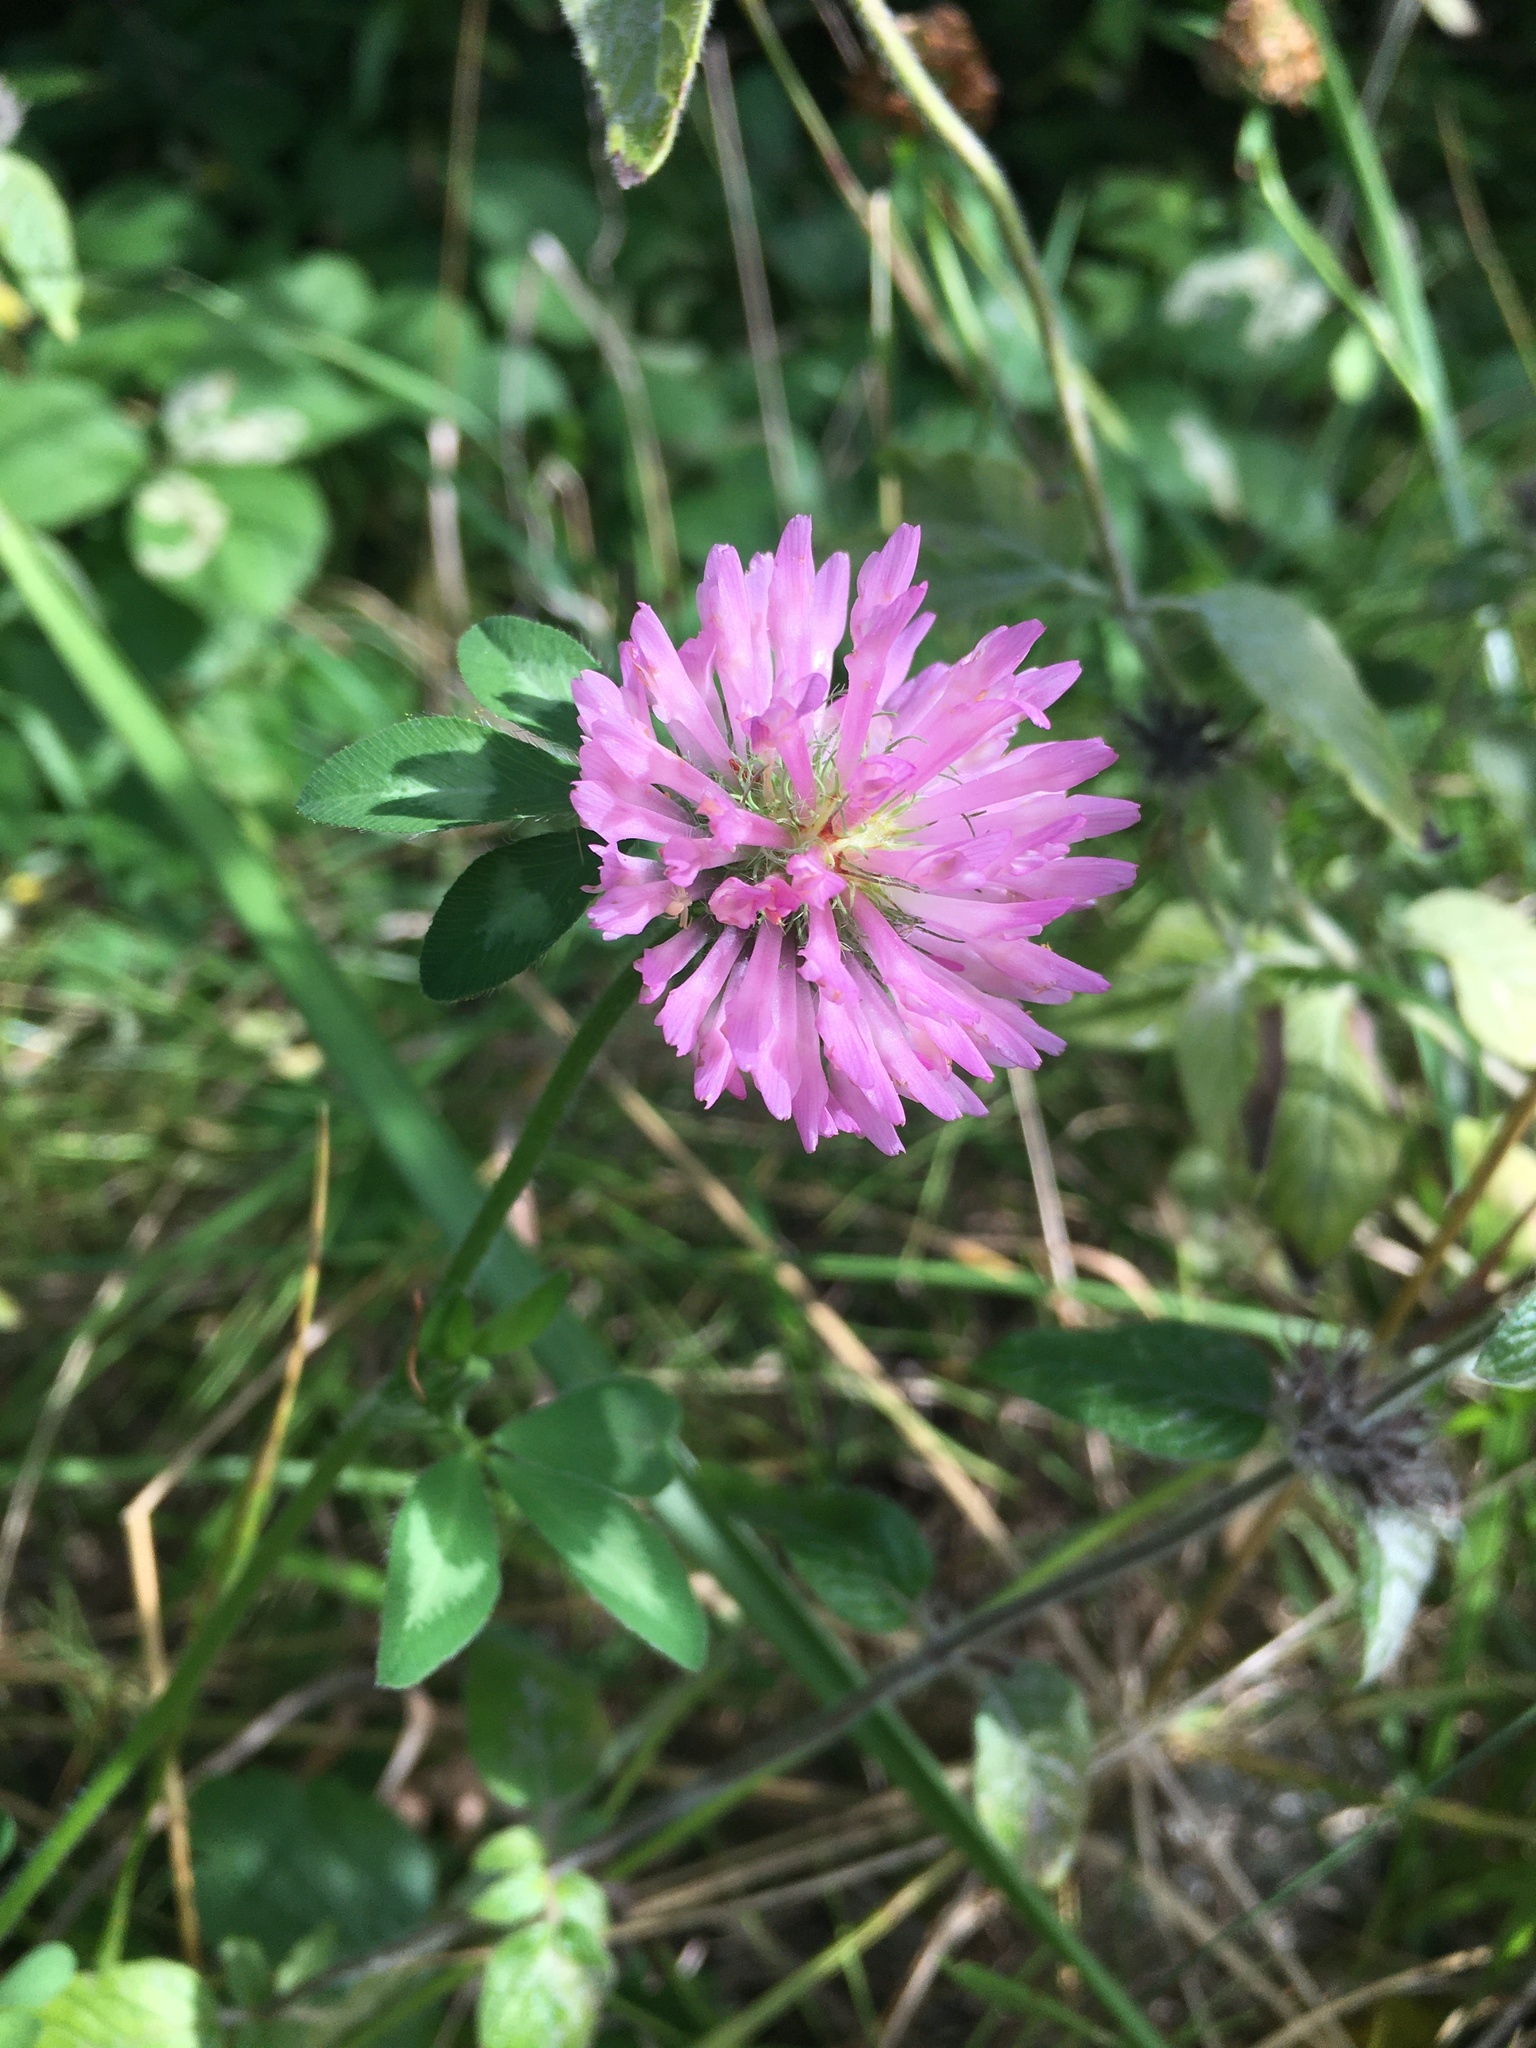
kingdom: Plantae
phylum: Tracheophyta
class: Magnoliopsida
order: Fabales
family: Fabaceae
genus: Trifolium
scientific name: Trifolium pratense
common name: Red clover
